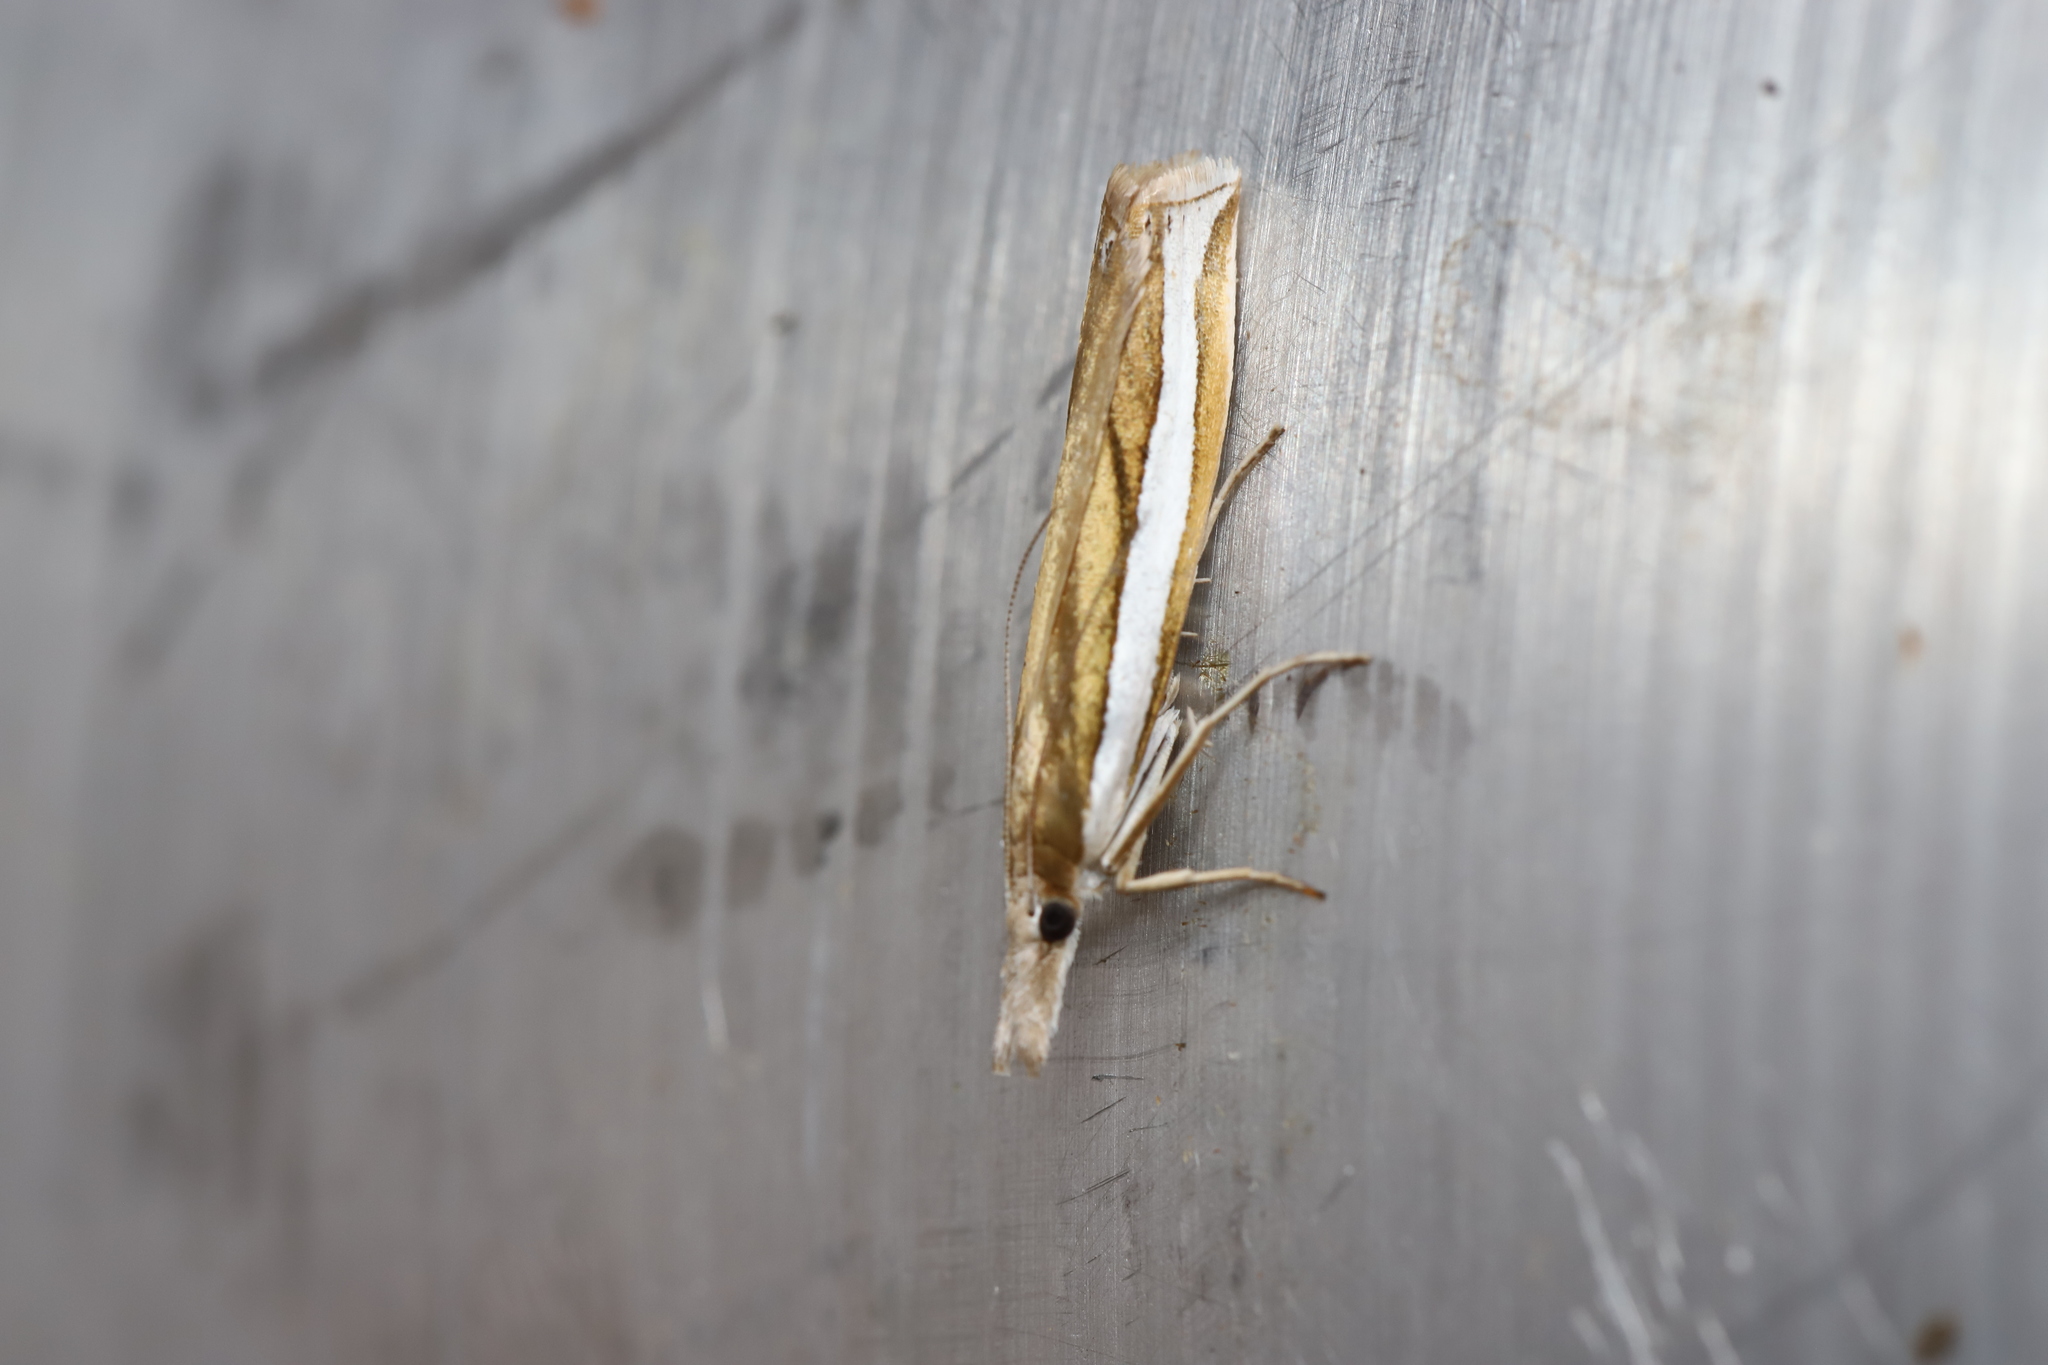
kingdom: Animalia
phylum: Arthropoda
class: Insecta
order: Lepidoptera
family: Crambidae
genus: Crambus
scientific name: Crambus unistriatellus
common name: Wide-stripe grass-veneer moth
